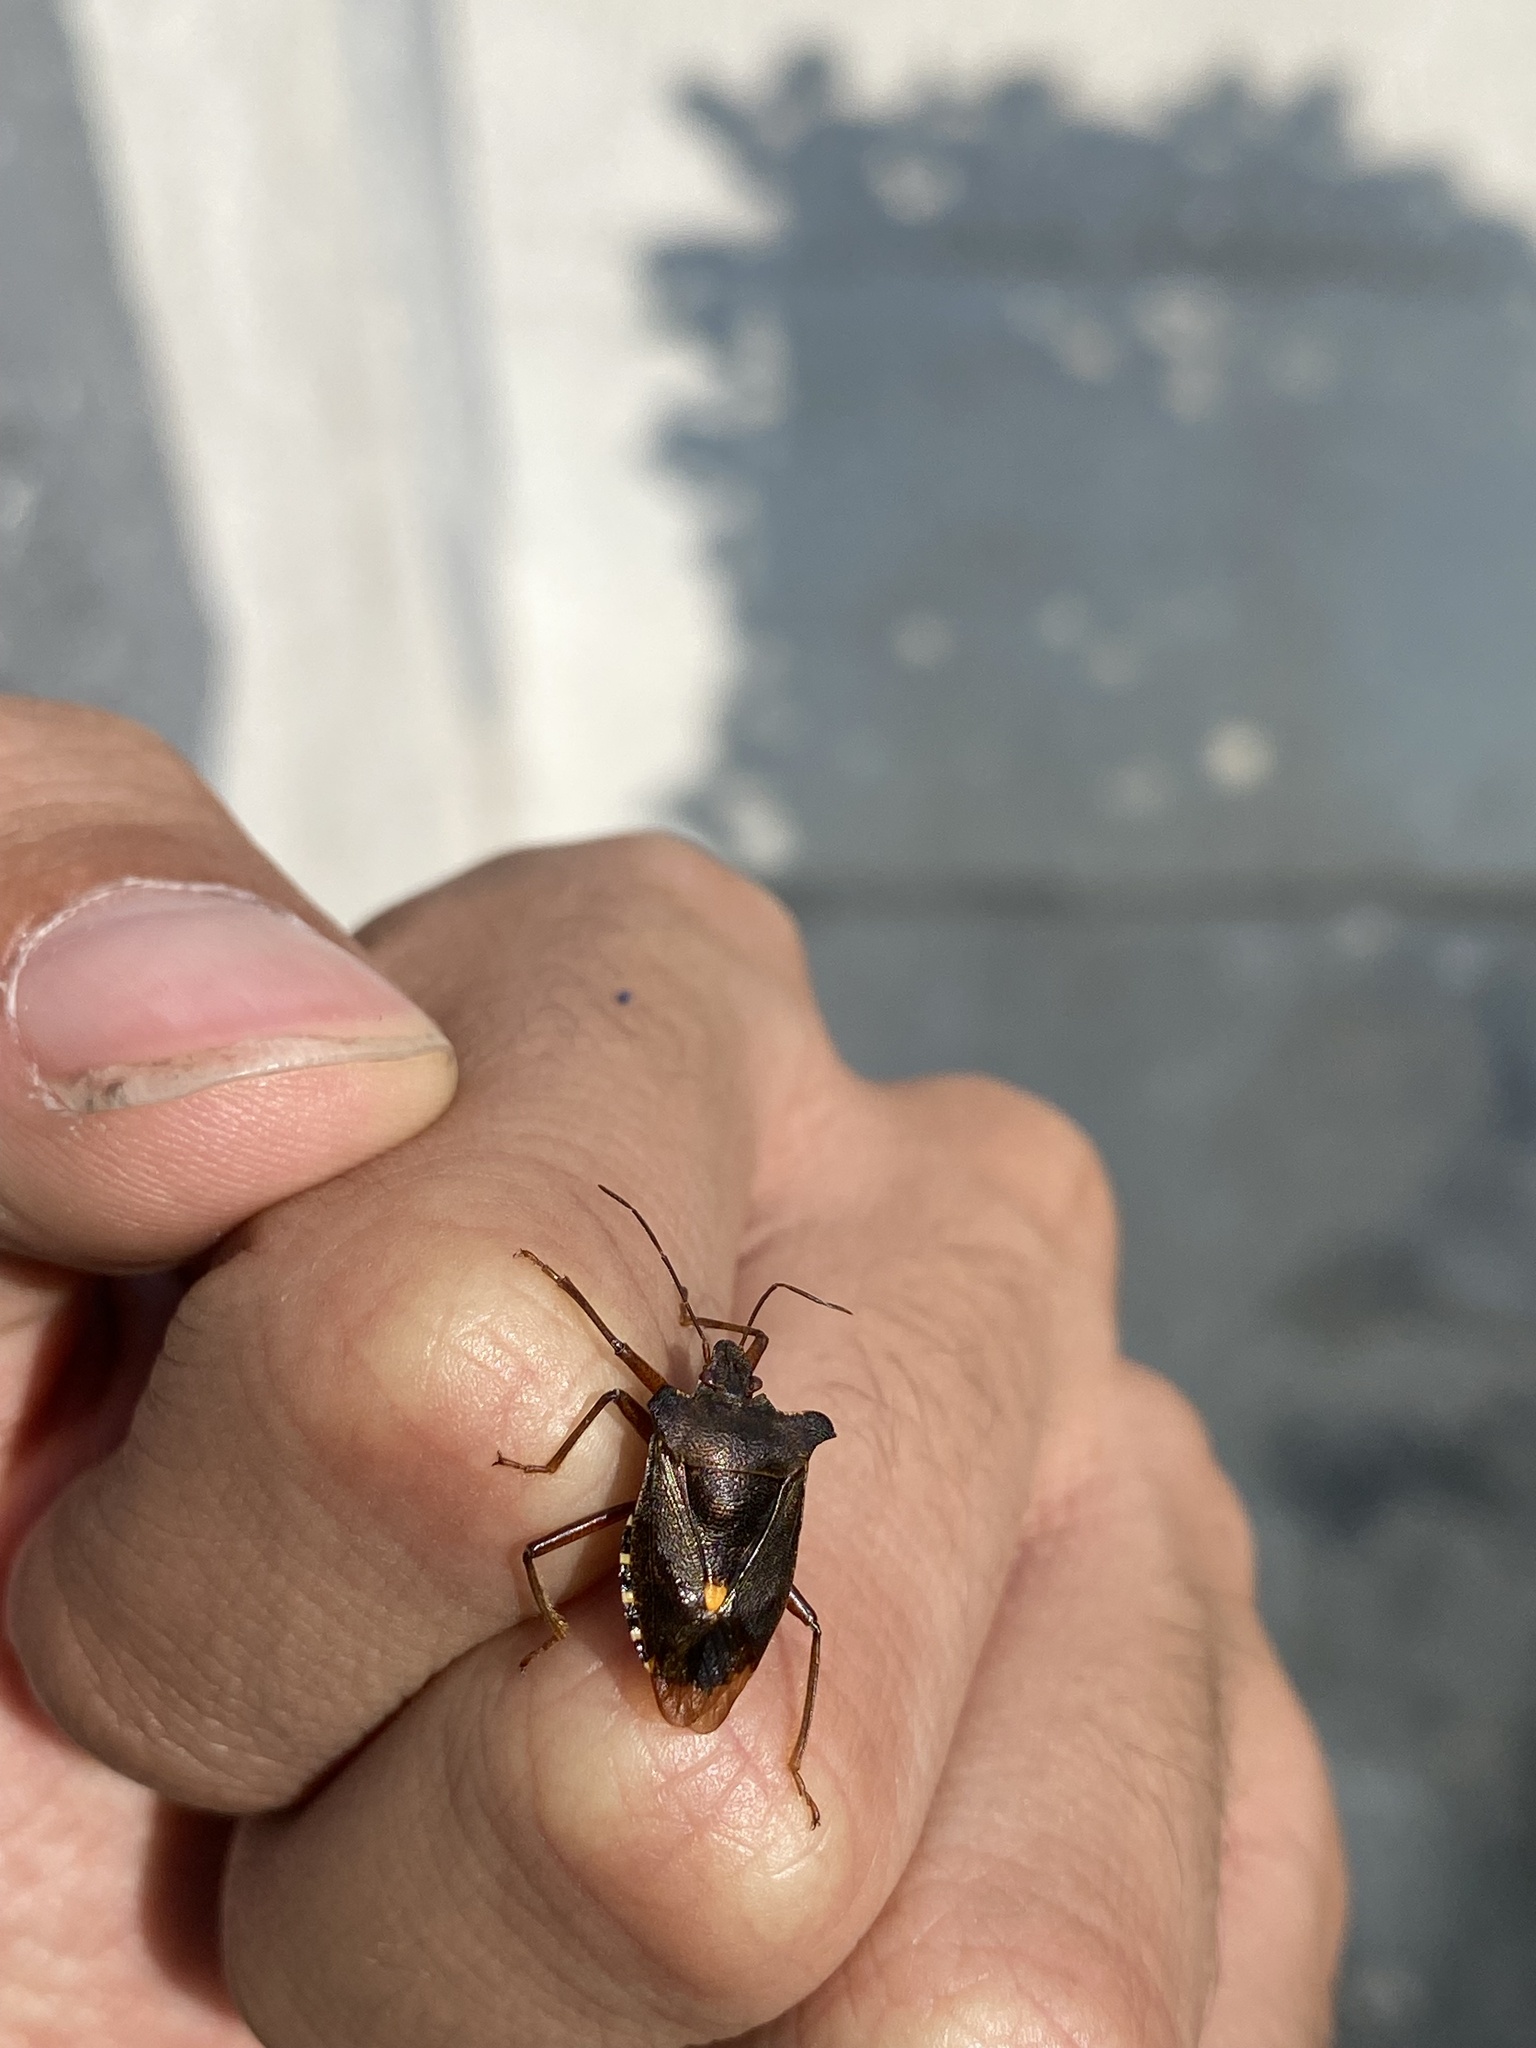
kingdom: Animalia
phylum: Arthropoda
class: Insecta
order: Hemiptera
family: Pentatomidae
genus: Pentatoma
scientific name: Pentatoma rufipes
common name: Forest bug
